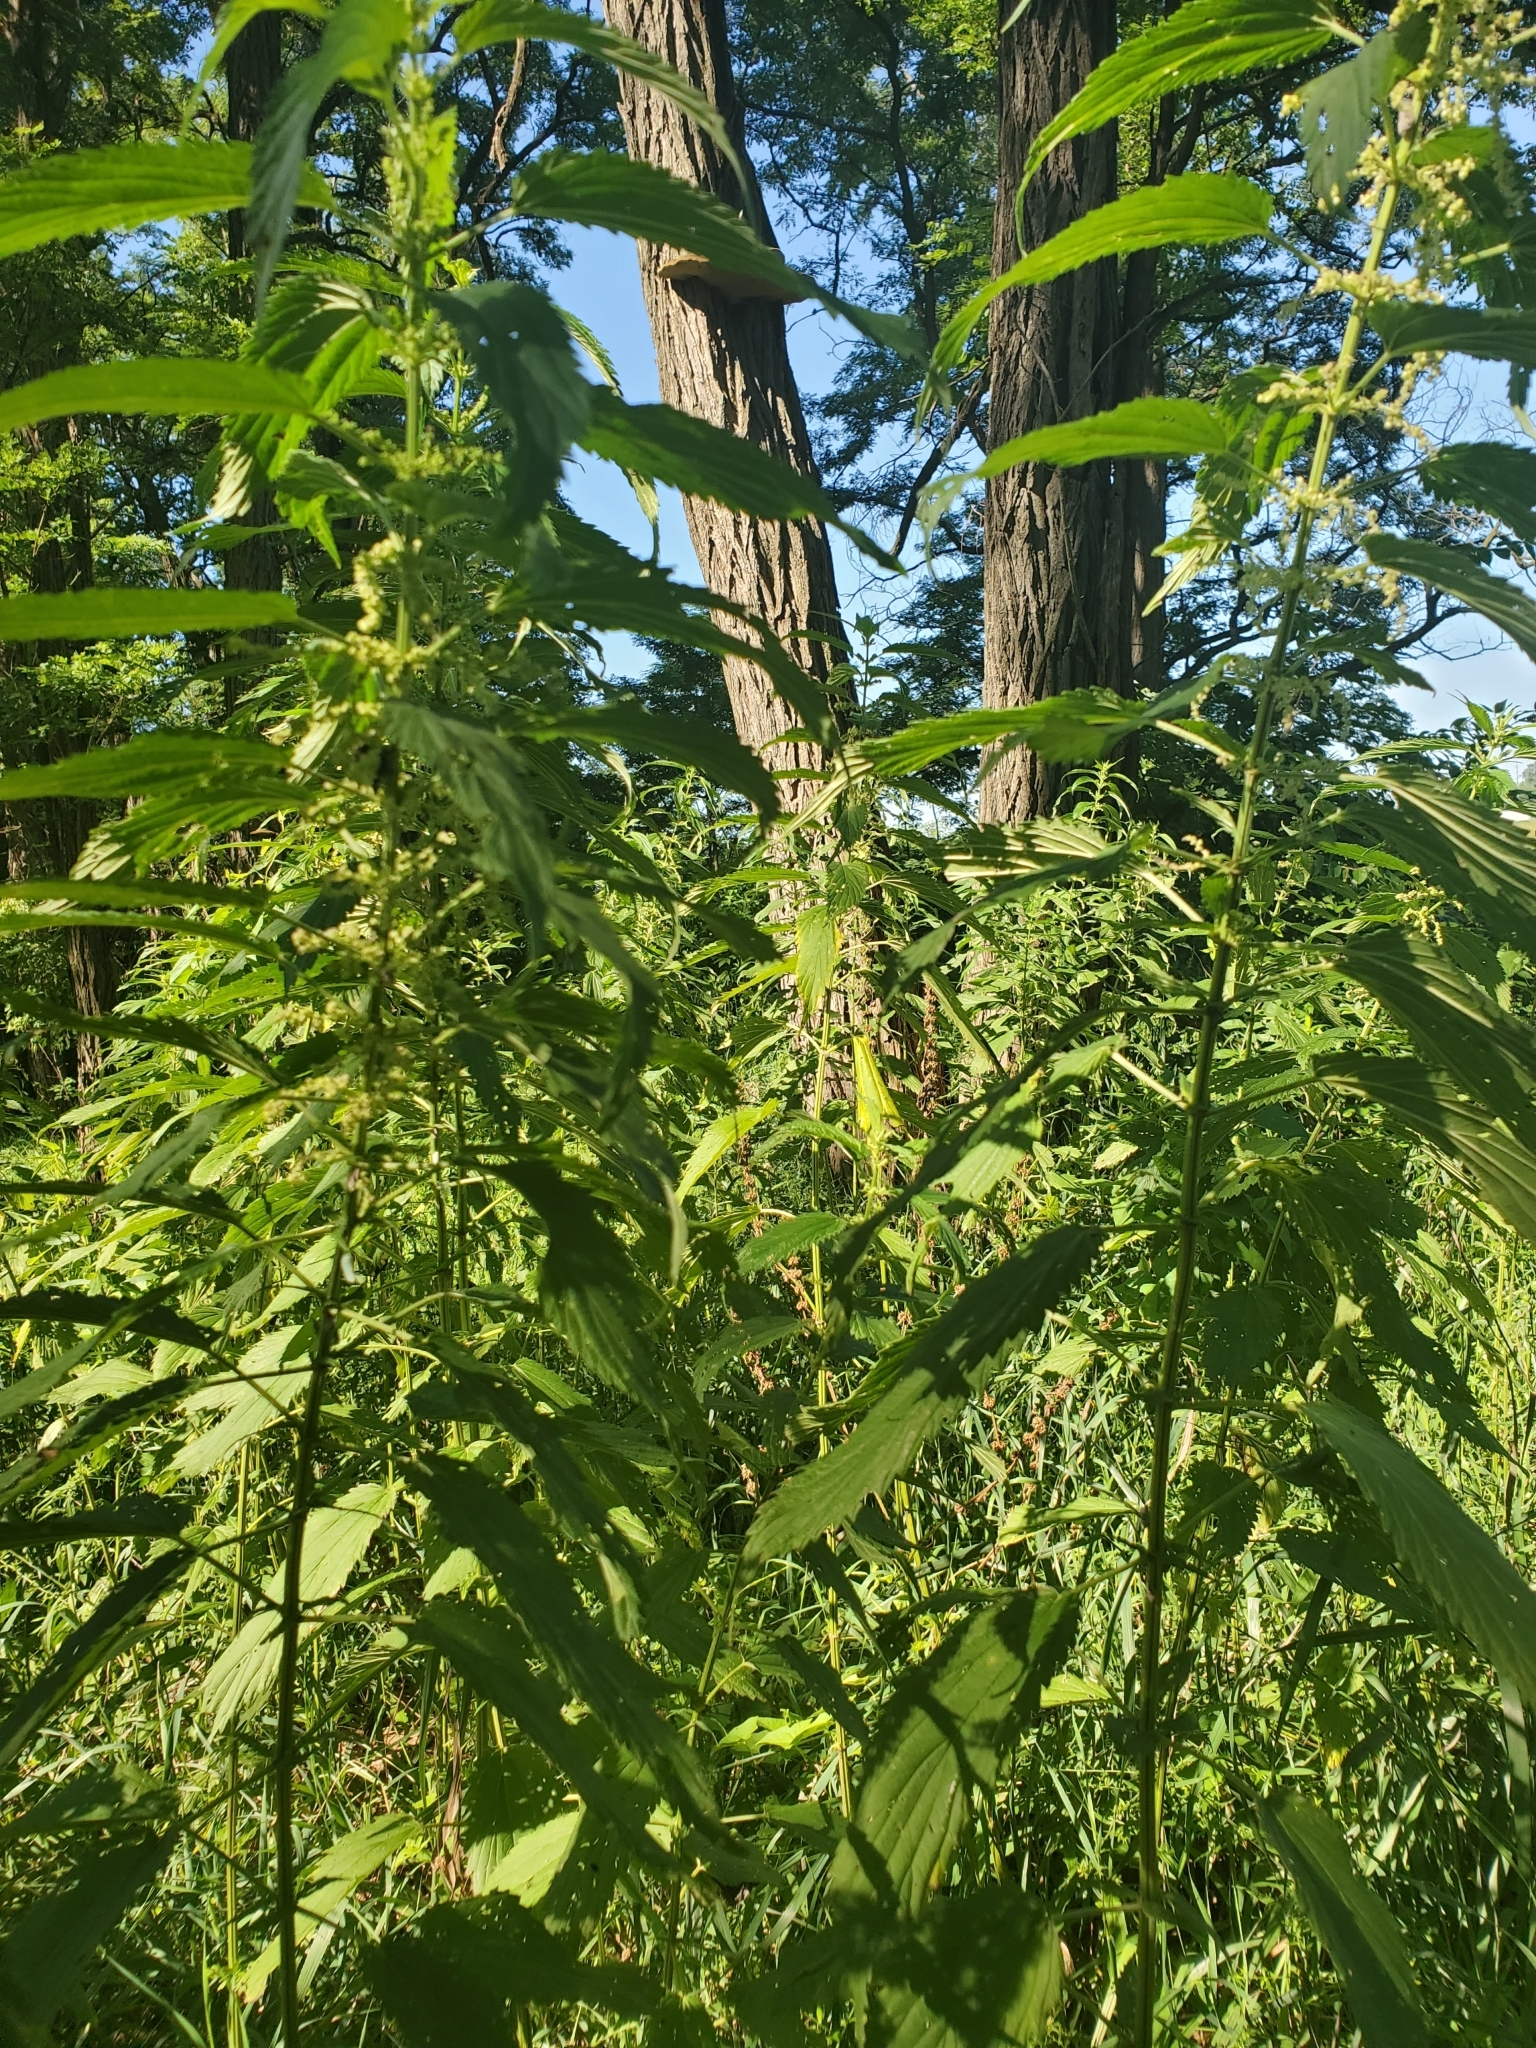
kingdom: Plantae
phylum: Tracheophyta
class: Magnoliopsida
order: Rosales
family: Urticaceae
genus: Urtica
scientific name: Urtica dioica
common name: Common nettle
